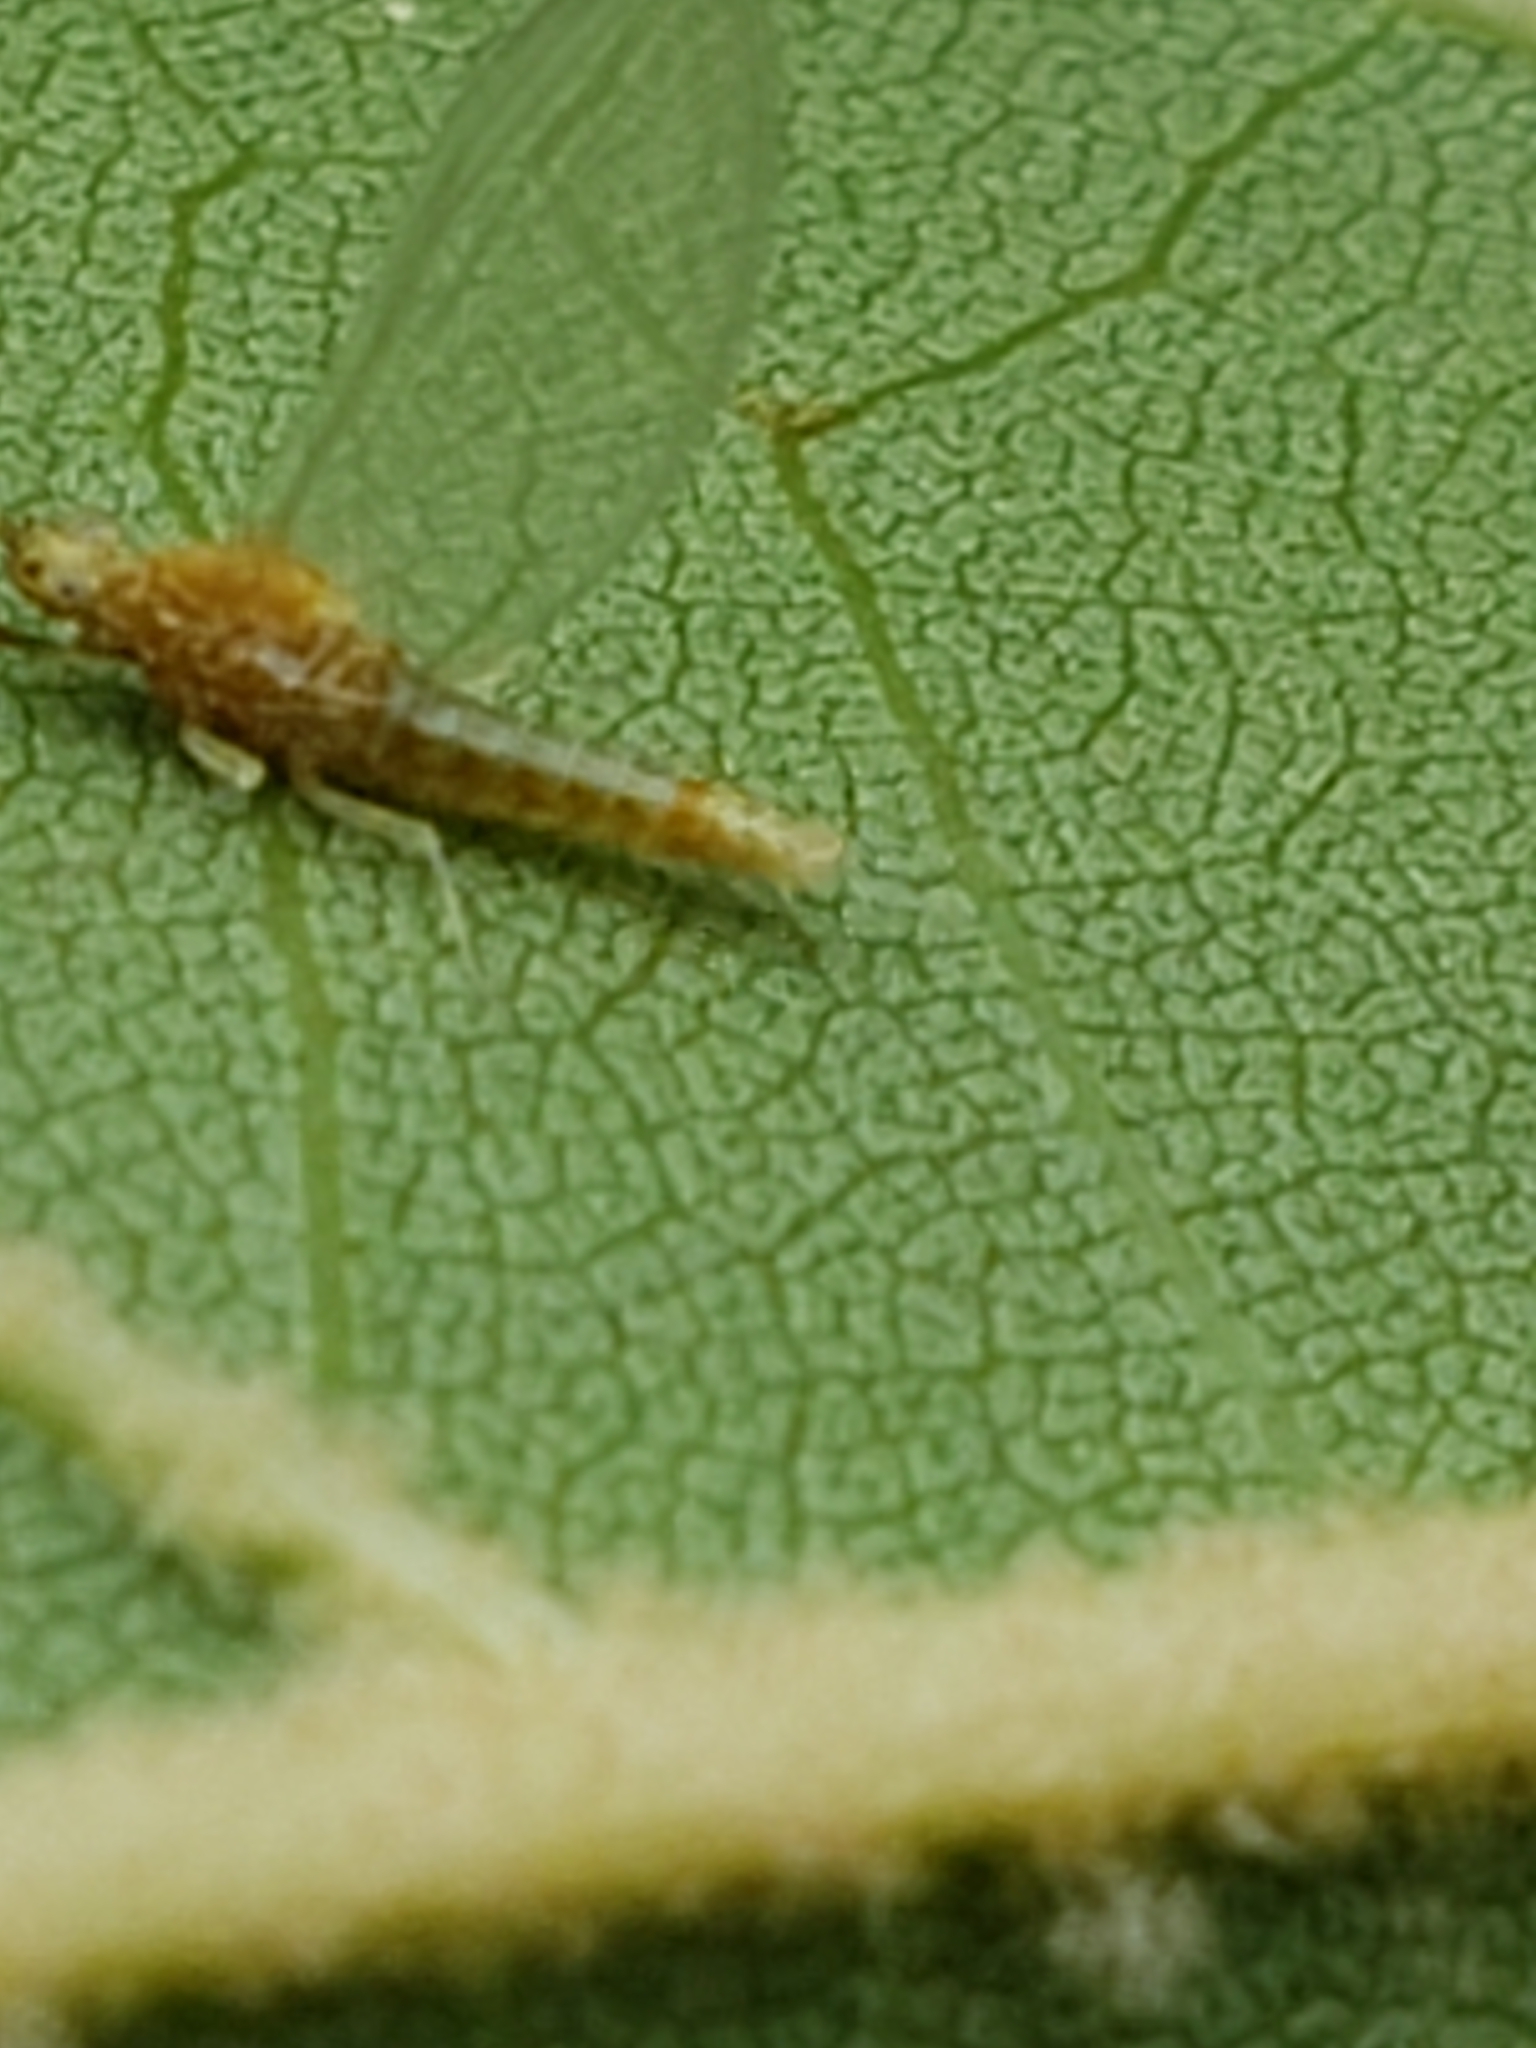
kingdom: Animalia
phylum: Arthropoda
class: Insecta
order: Ephemeroptera
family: Heptageniidae
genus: Nixe
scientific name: Nixe perfida
